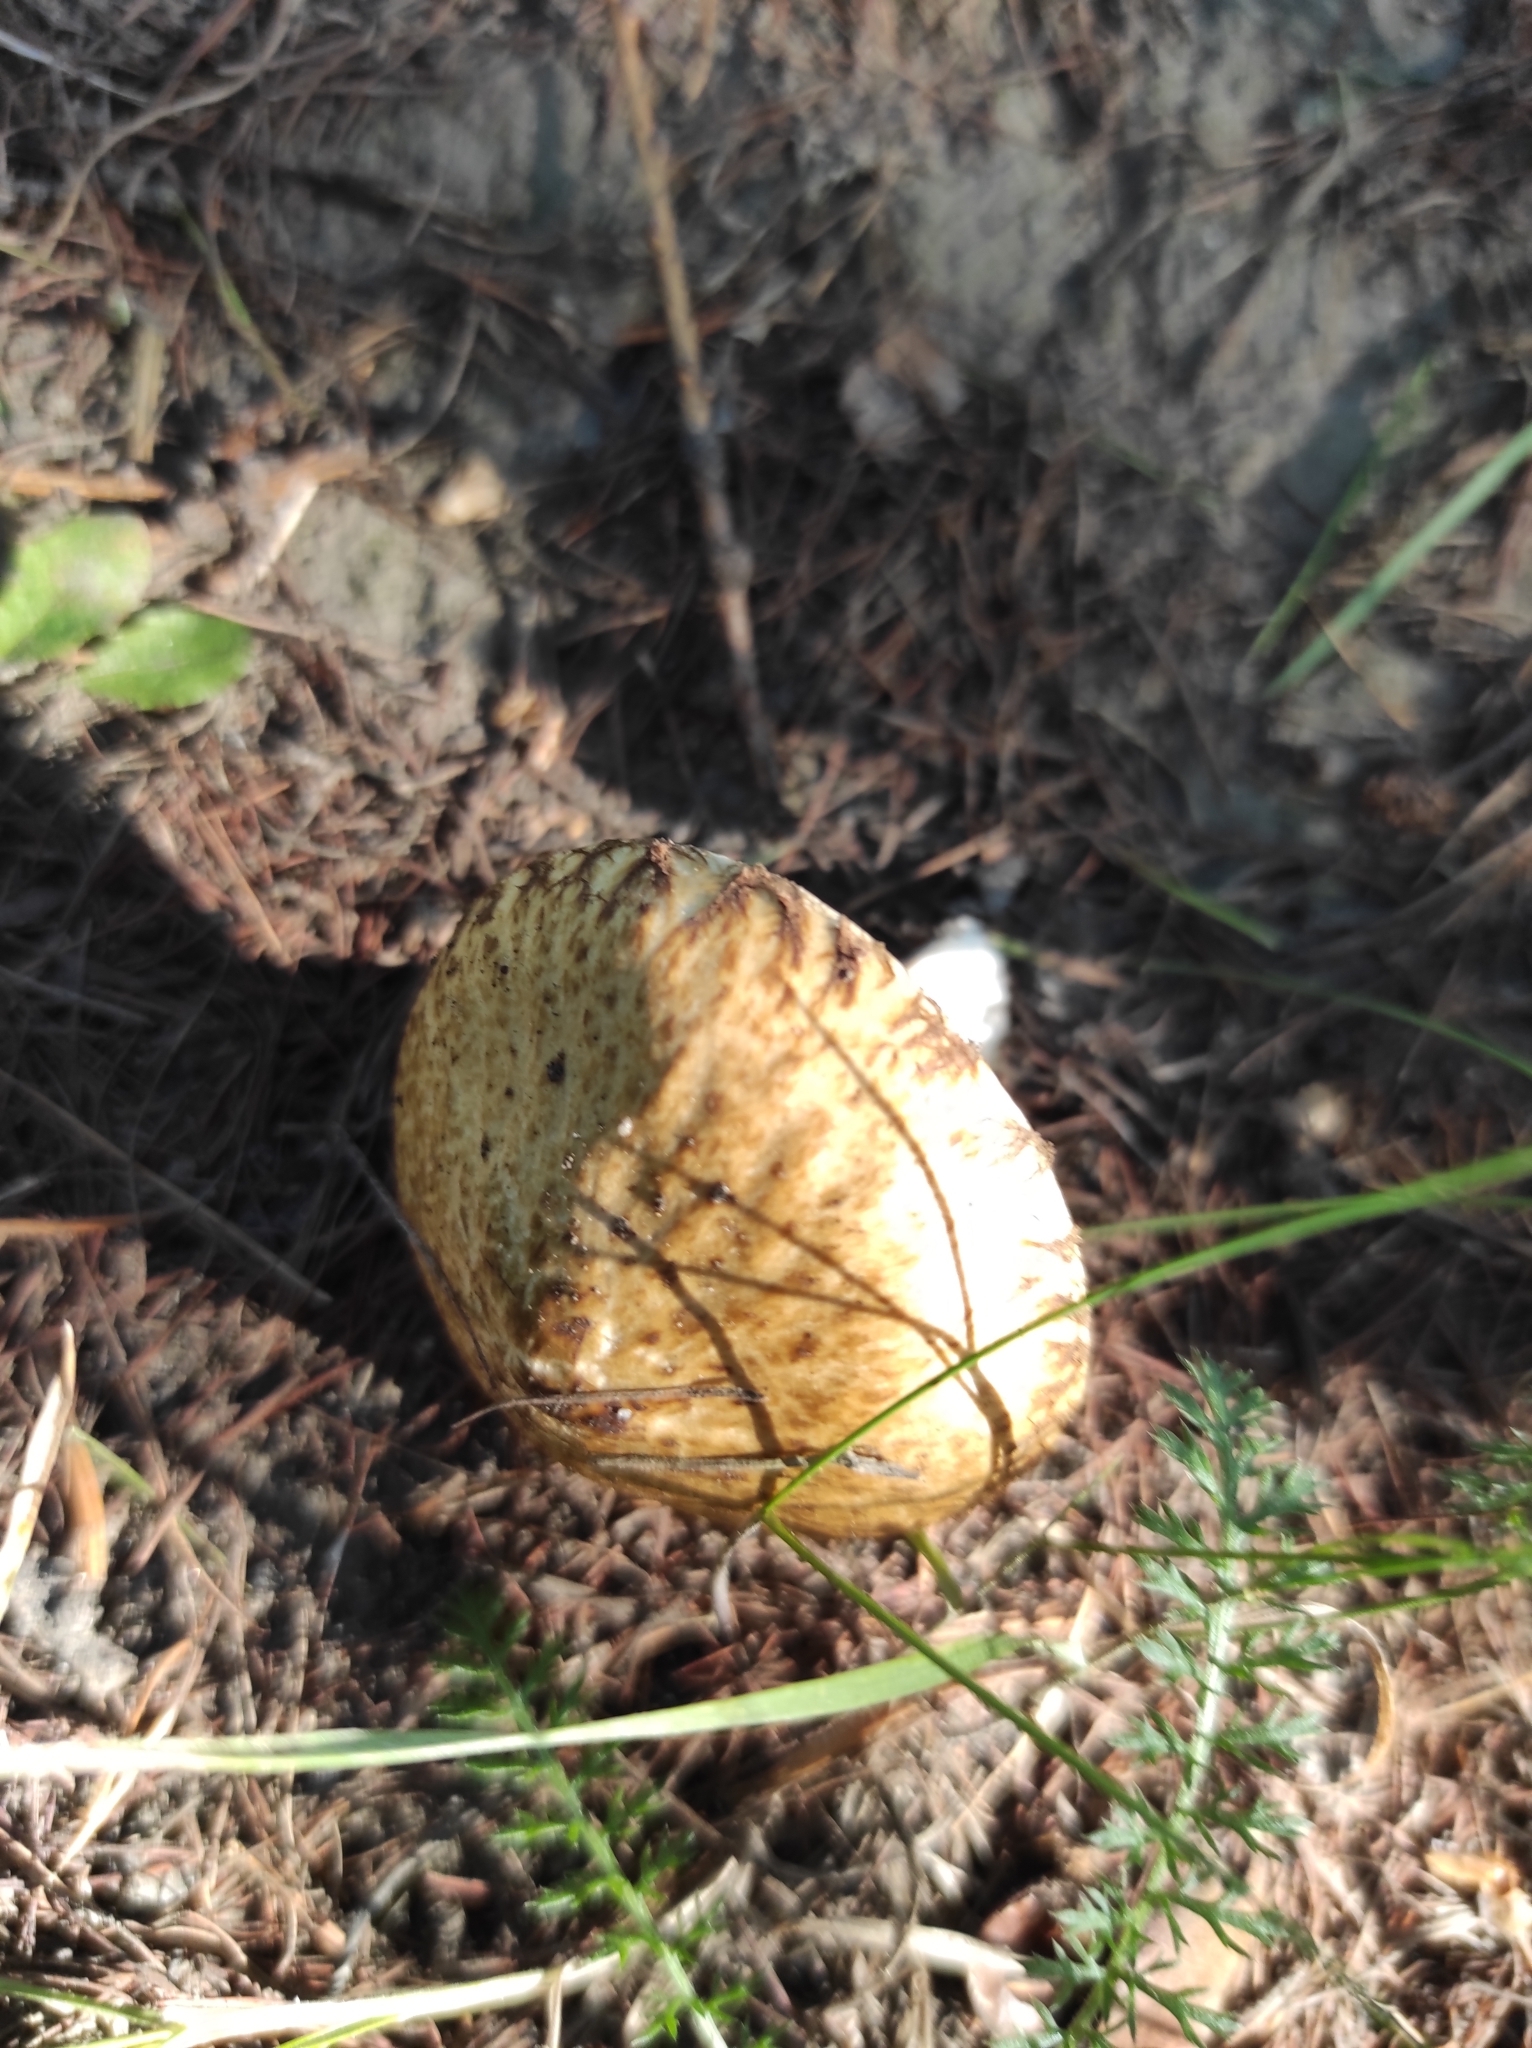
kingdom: Fungi
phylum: Basidiomycota
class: Agaricomycetes
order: Boletales
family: Suillaceae
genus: Suillus
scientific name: Suillus viscidus
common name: Sticky bolete
